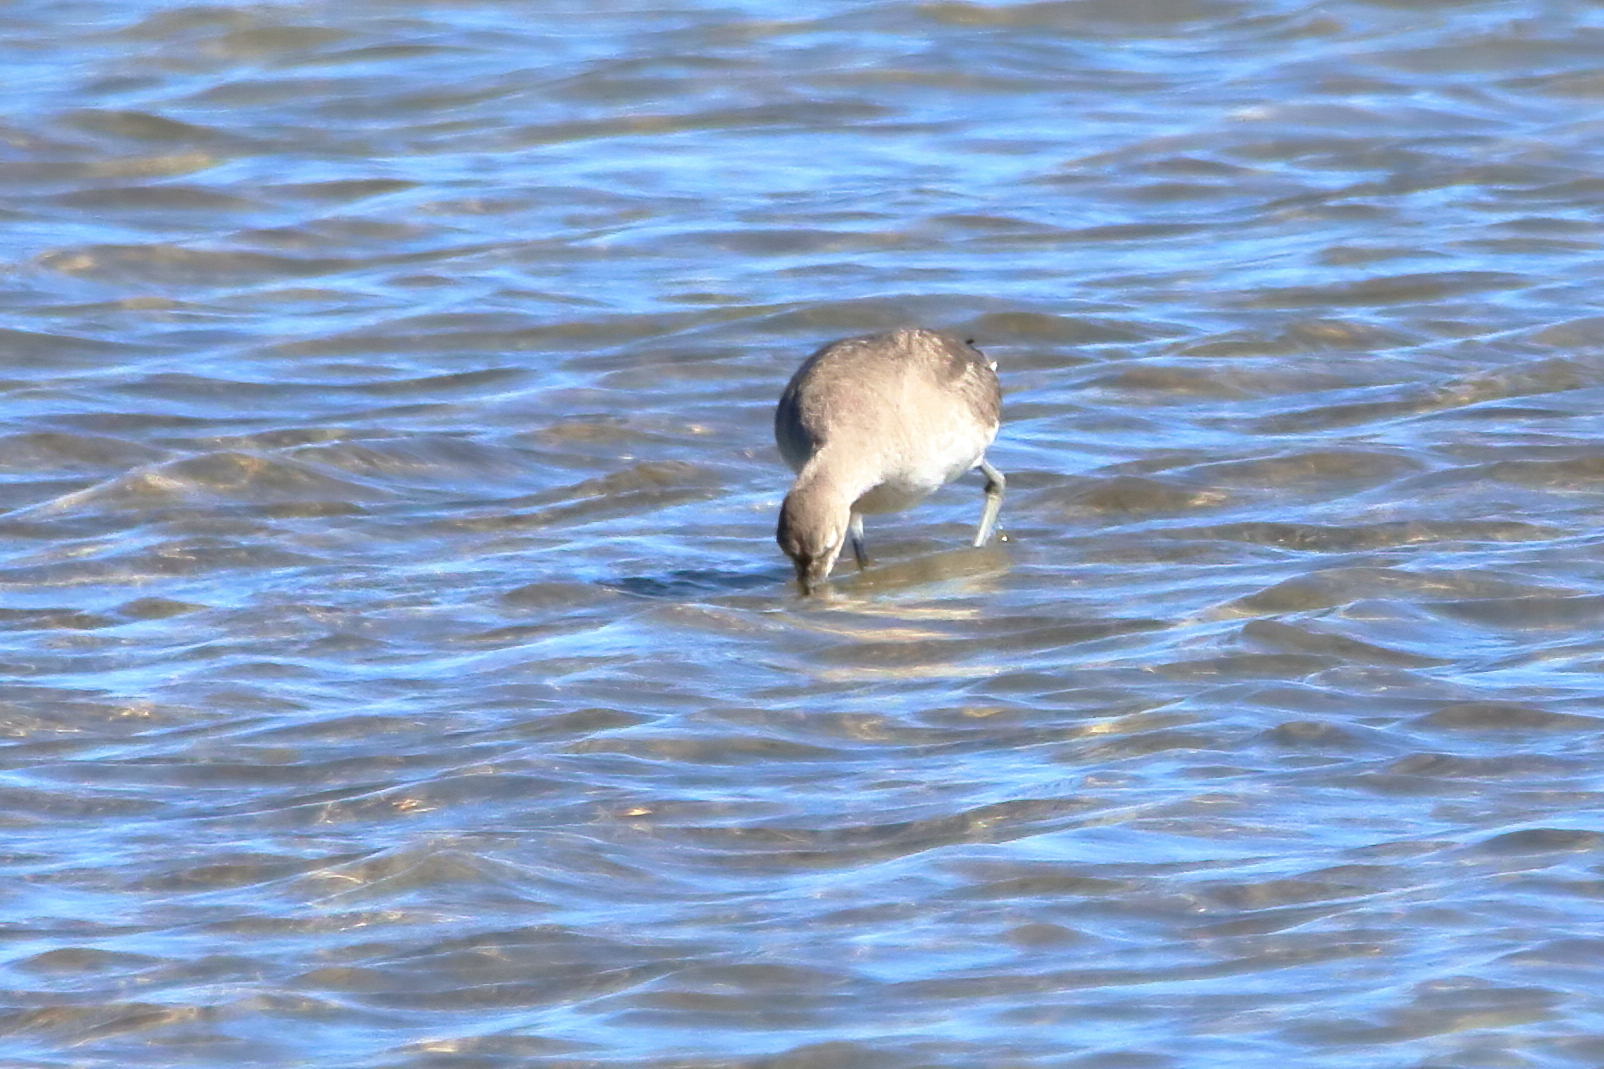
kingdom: Animalia
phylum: Chordata
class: Aves
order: Charadriiformes
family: Scolopacidae
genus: Tringa
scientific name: Tringa semipalmata
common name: Willet
